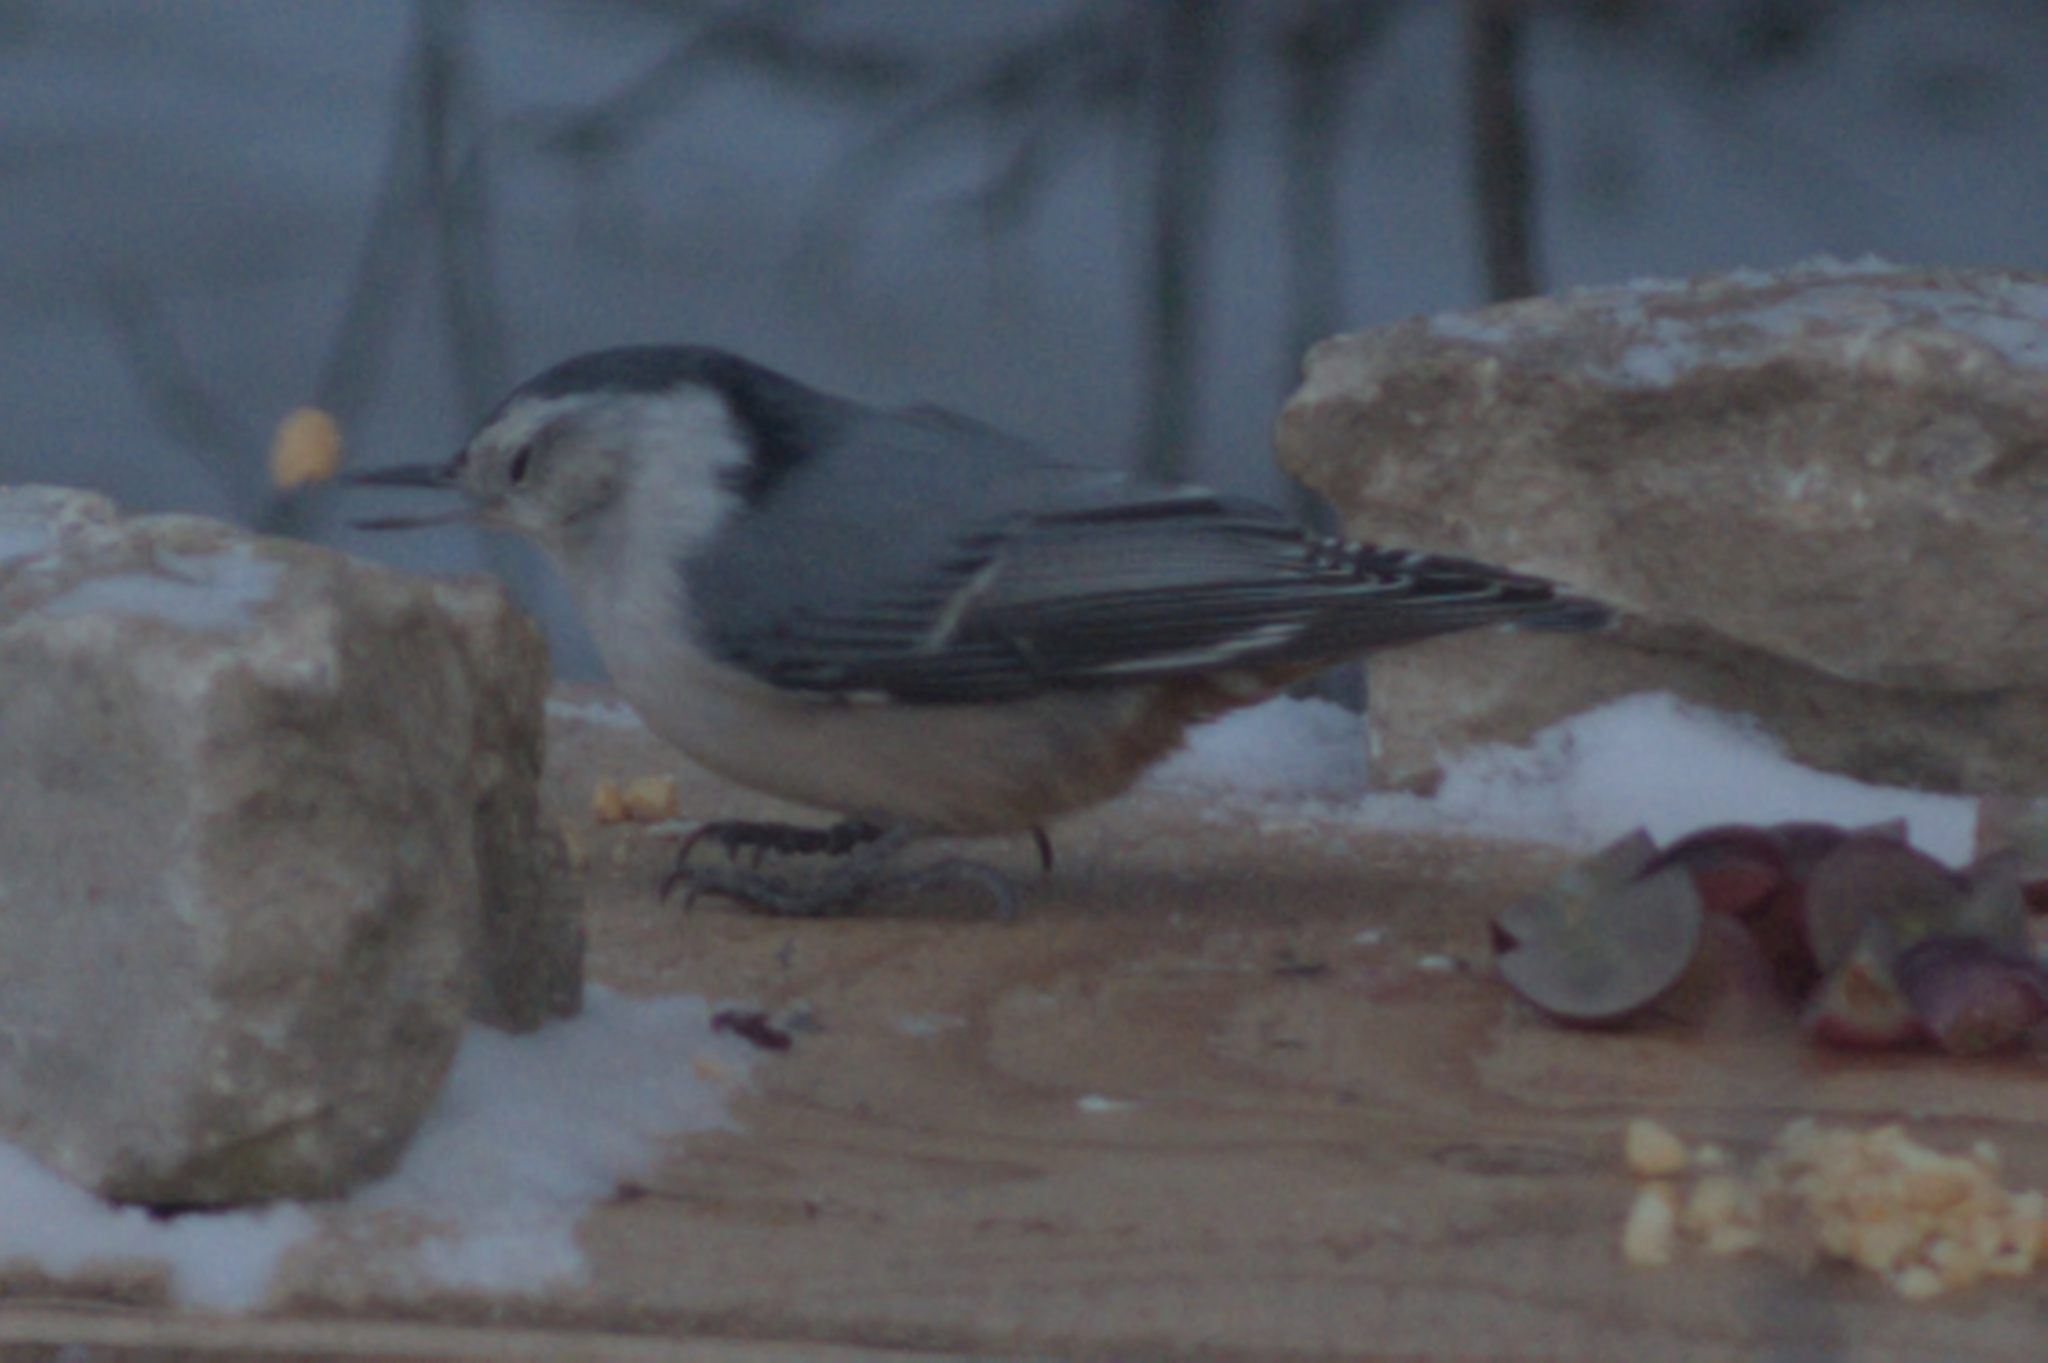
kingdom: Animalia
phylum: Chordata
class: Aves
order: Passeriformes
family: Sittidae
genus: Sitta
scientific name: Sitta carolinensis
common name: White-breasted nuthatch
